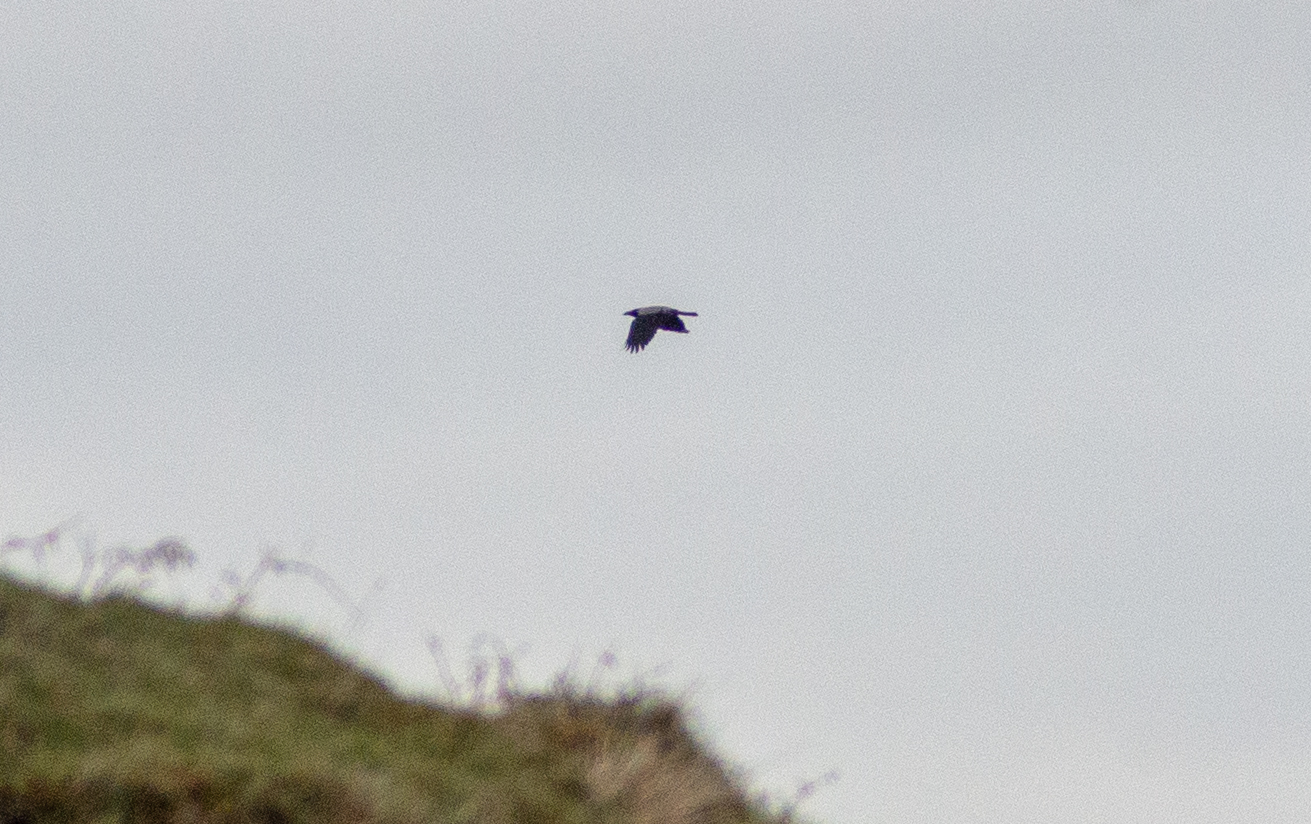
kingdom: Animalia
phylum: Chordata
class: Aves
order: Passeriformes
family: Corvidae
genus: Corvus
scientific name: Corvus cornix
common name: Hooded crow
